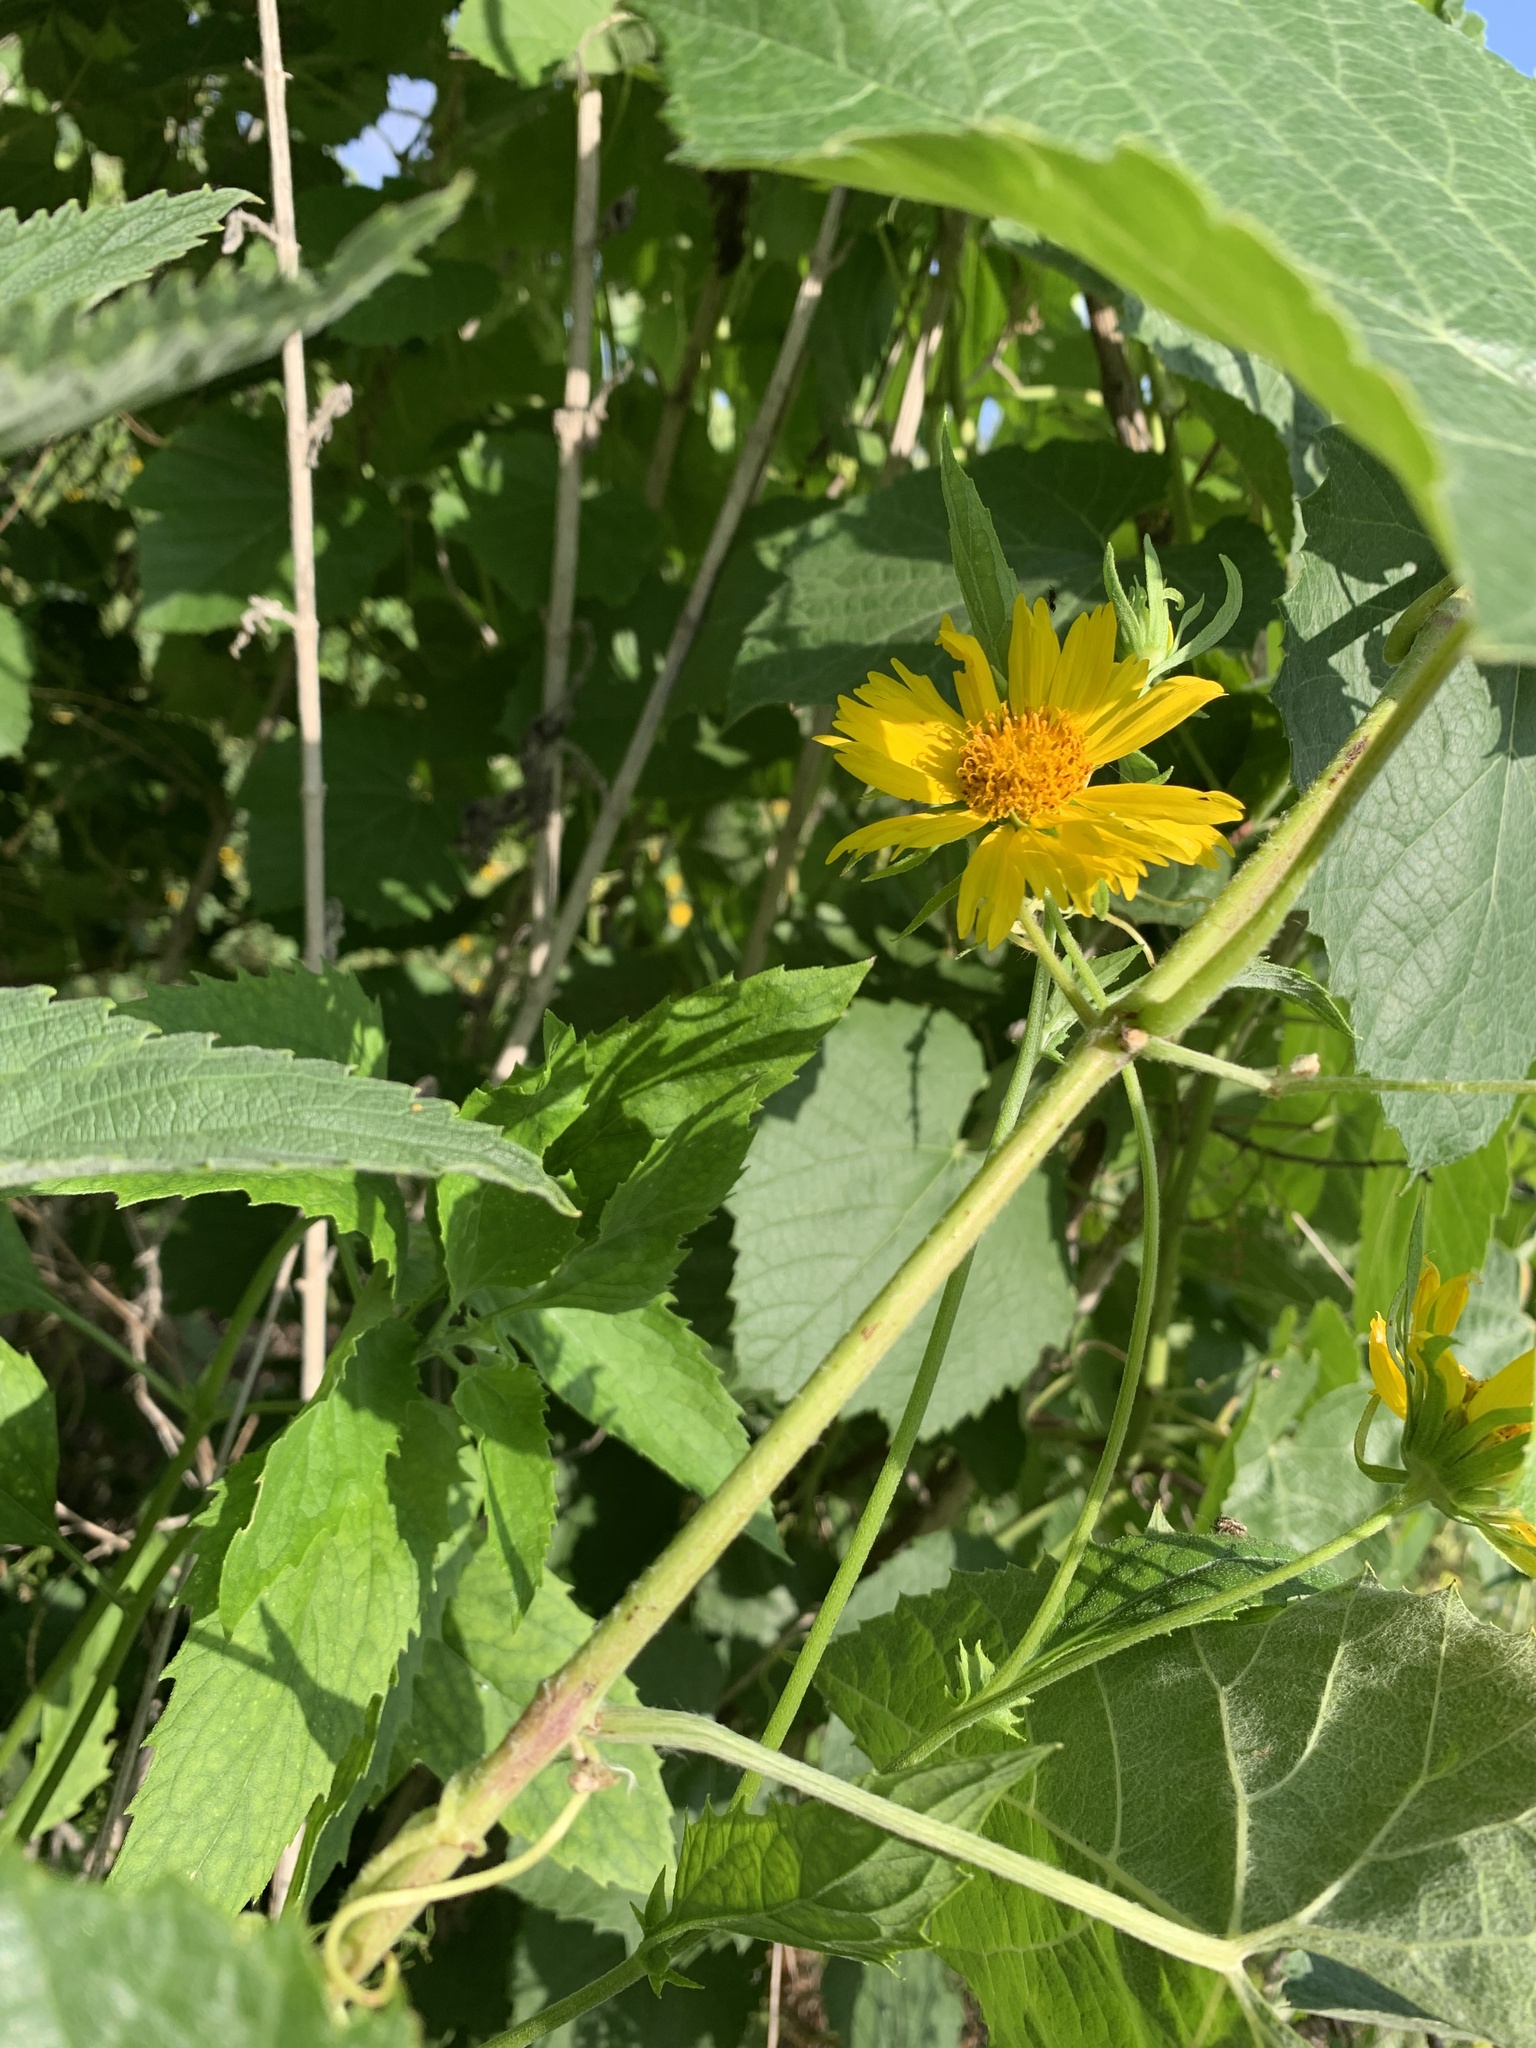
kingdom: Plantae
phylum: Tracheophyta
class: Magnoliopsida
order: Asterales
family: Asteraceae
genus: Verbesina
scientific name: Verbesina encelioides
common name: Golden crownbeard
